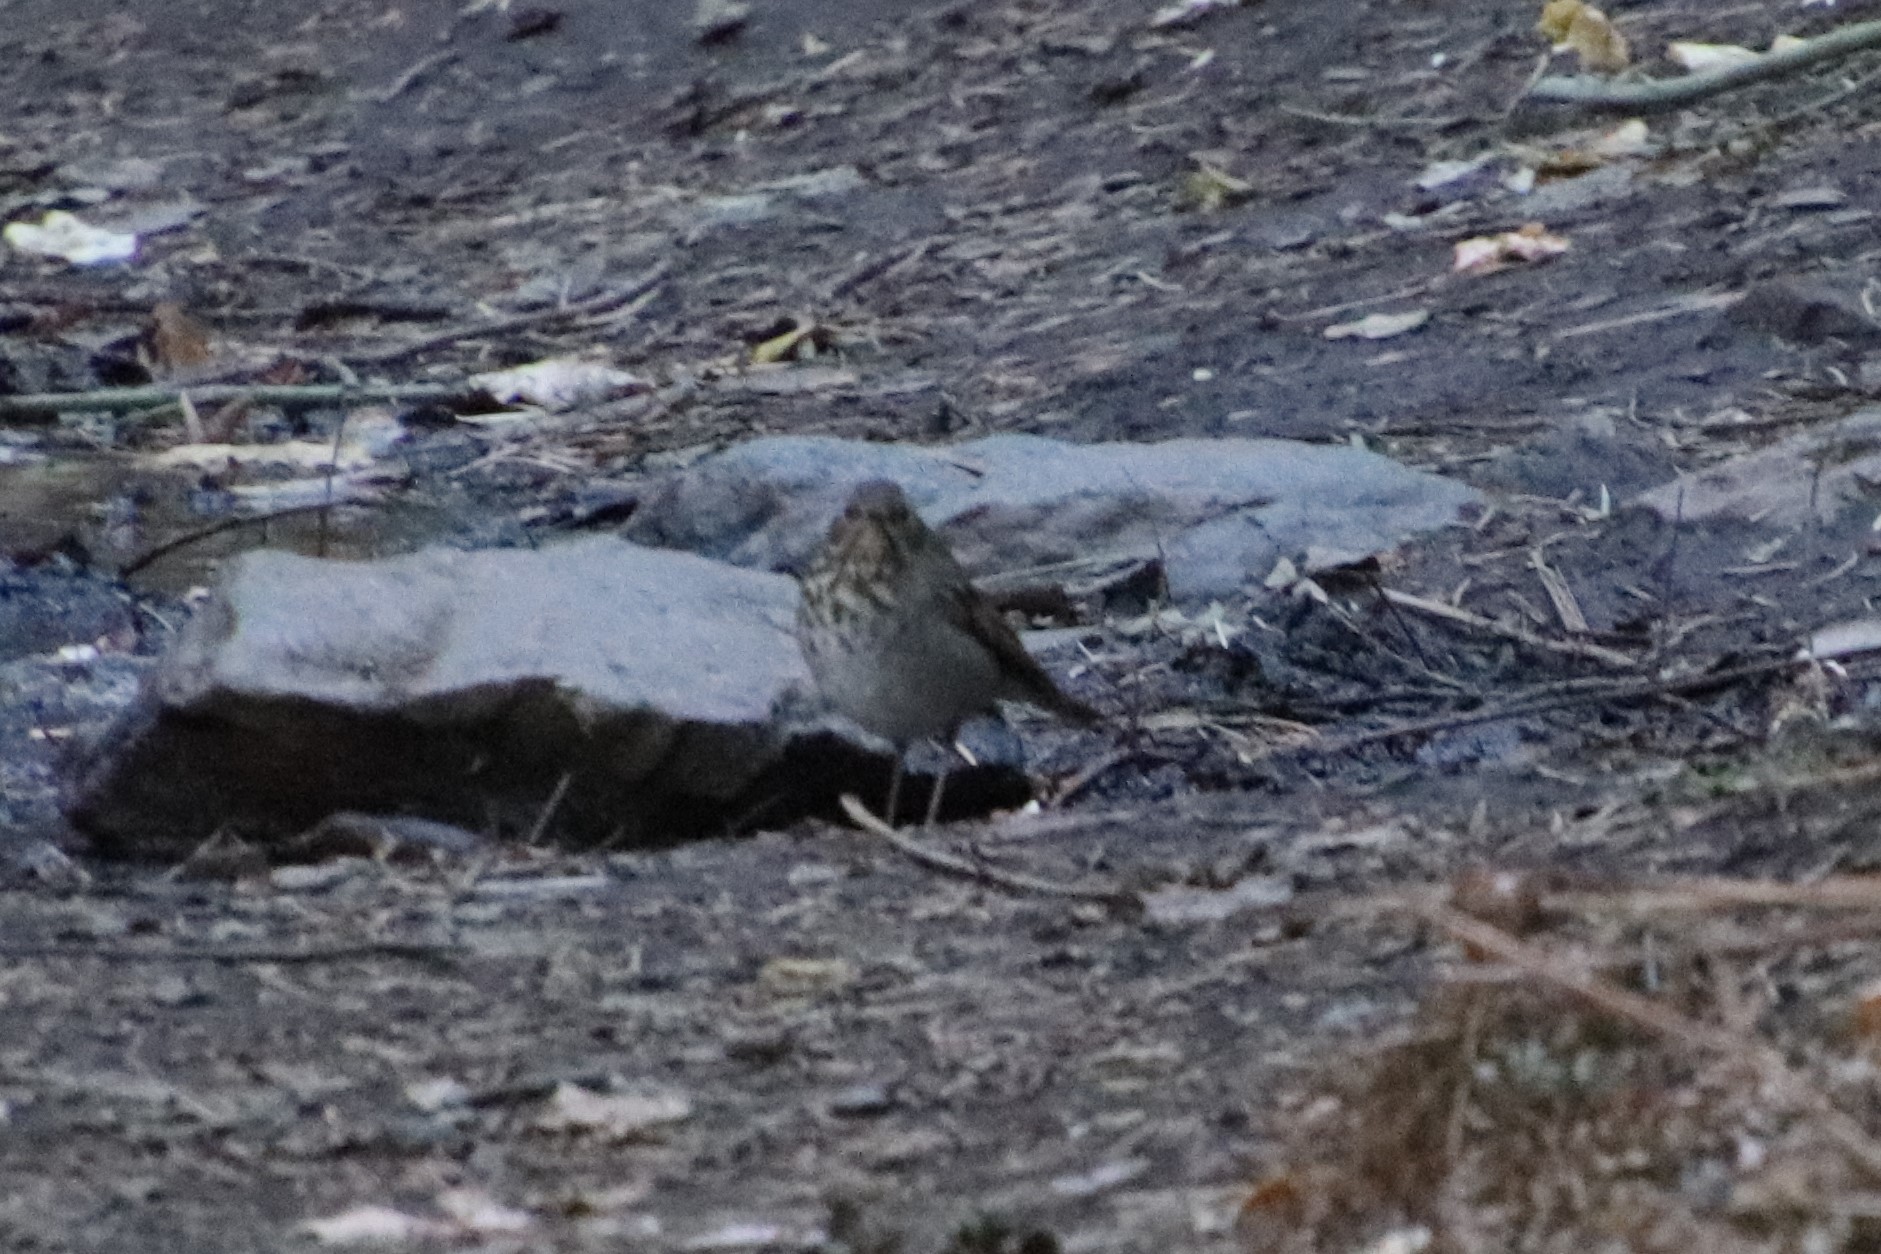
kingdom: Animalia
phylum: Chordata
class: Aves
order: Passeriformes
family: Turdidae
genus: Catharus
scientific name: Catharus guttatus
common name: Hermit thrush
